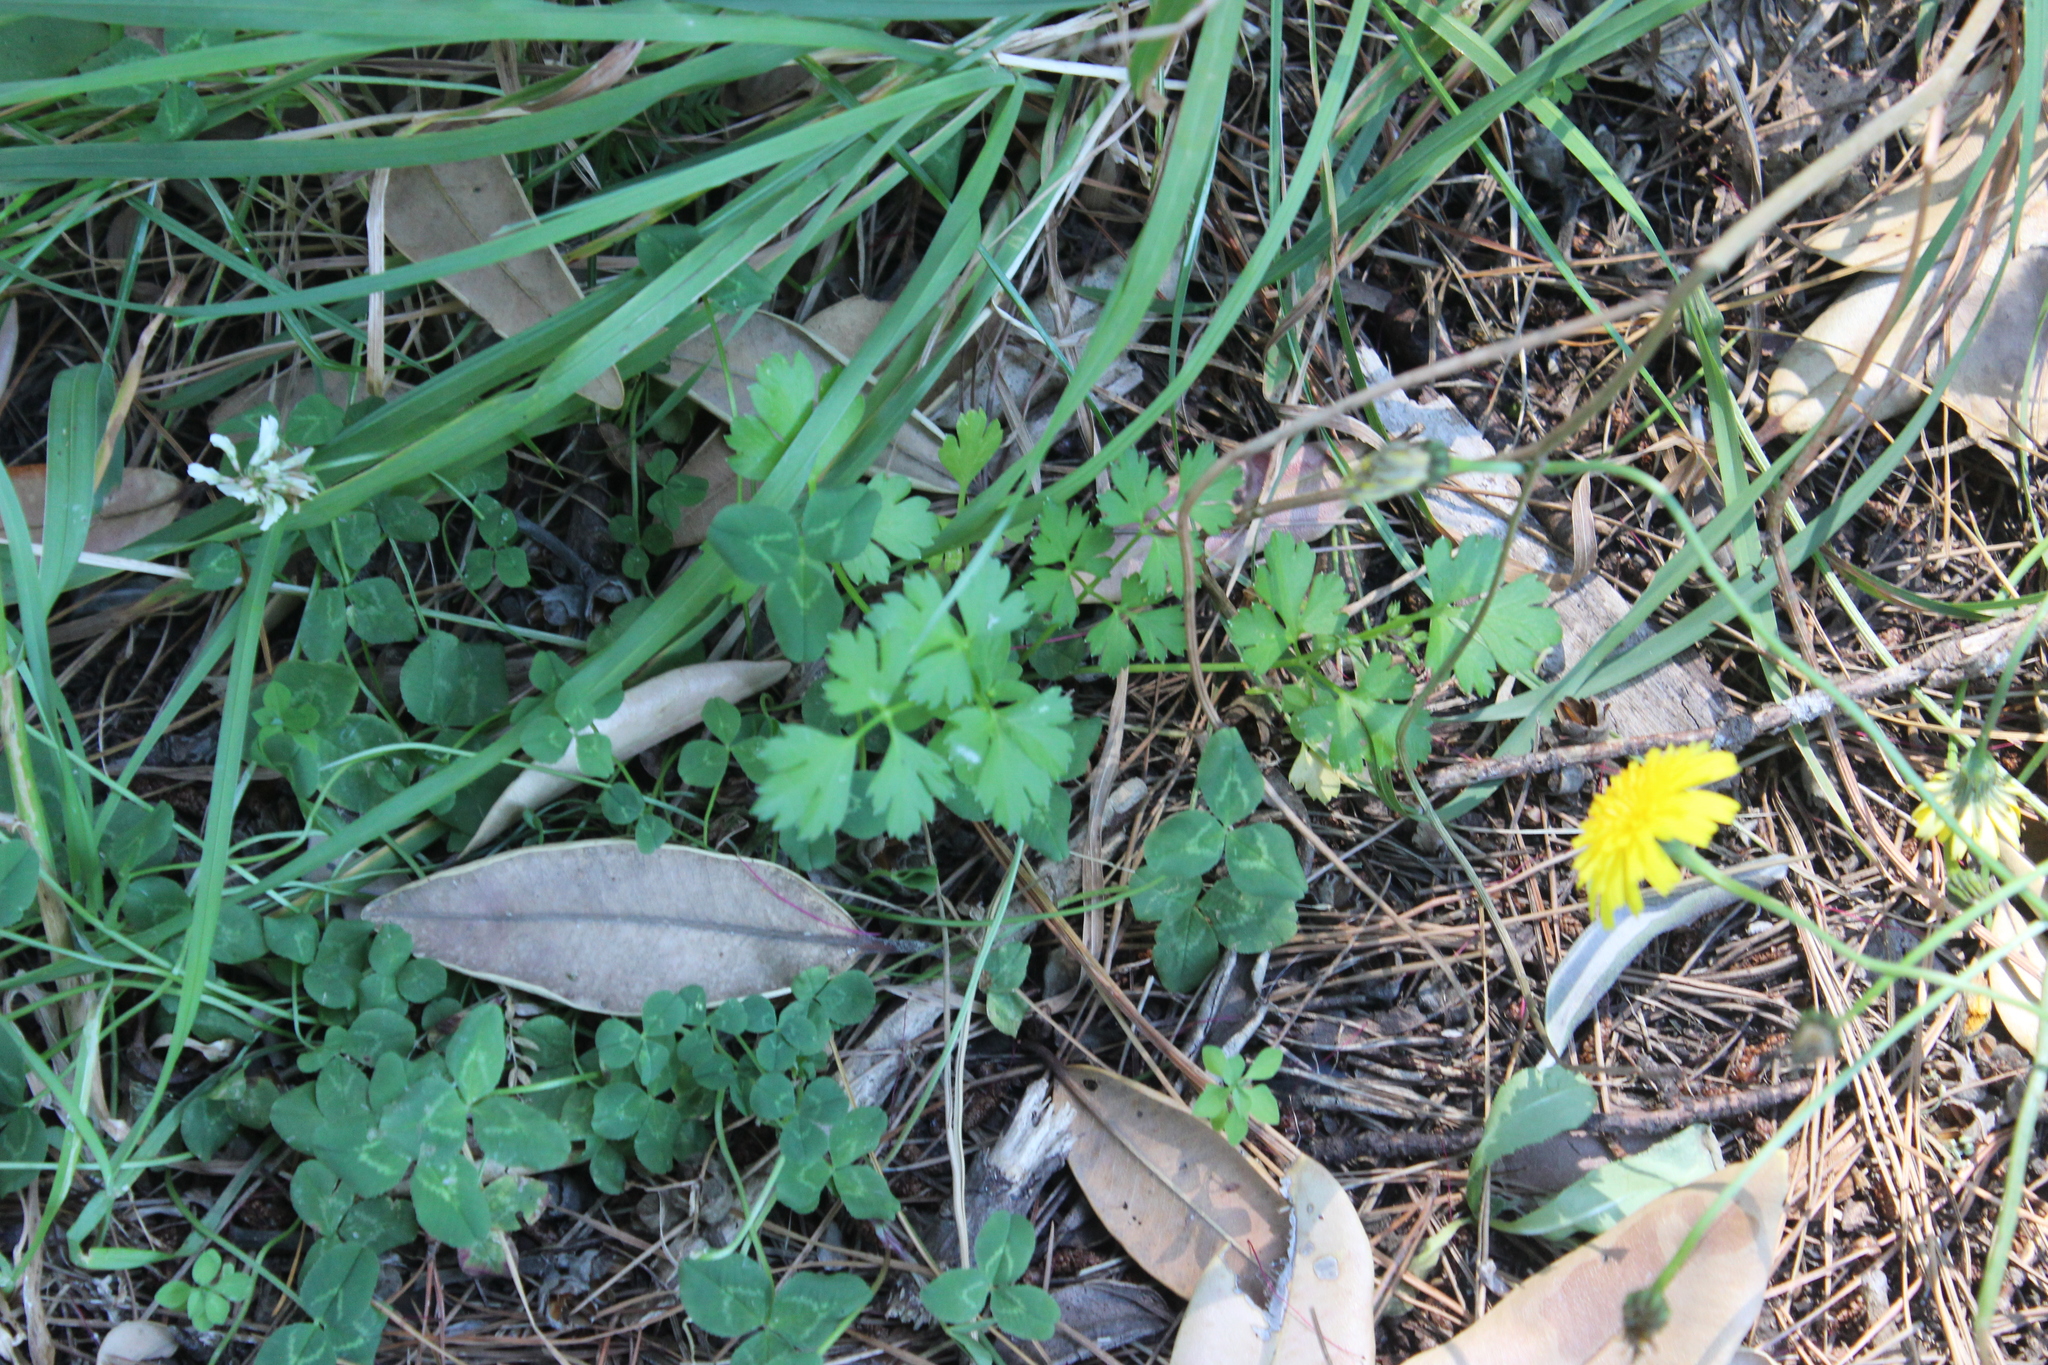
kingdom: Plantae
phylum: Tracheophyta
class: Magnoliopsida
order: Apiales
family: Apiaceae
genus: Petroselinum
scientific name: Petroselinum crispum
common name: Parsley
